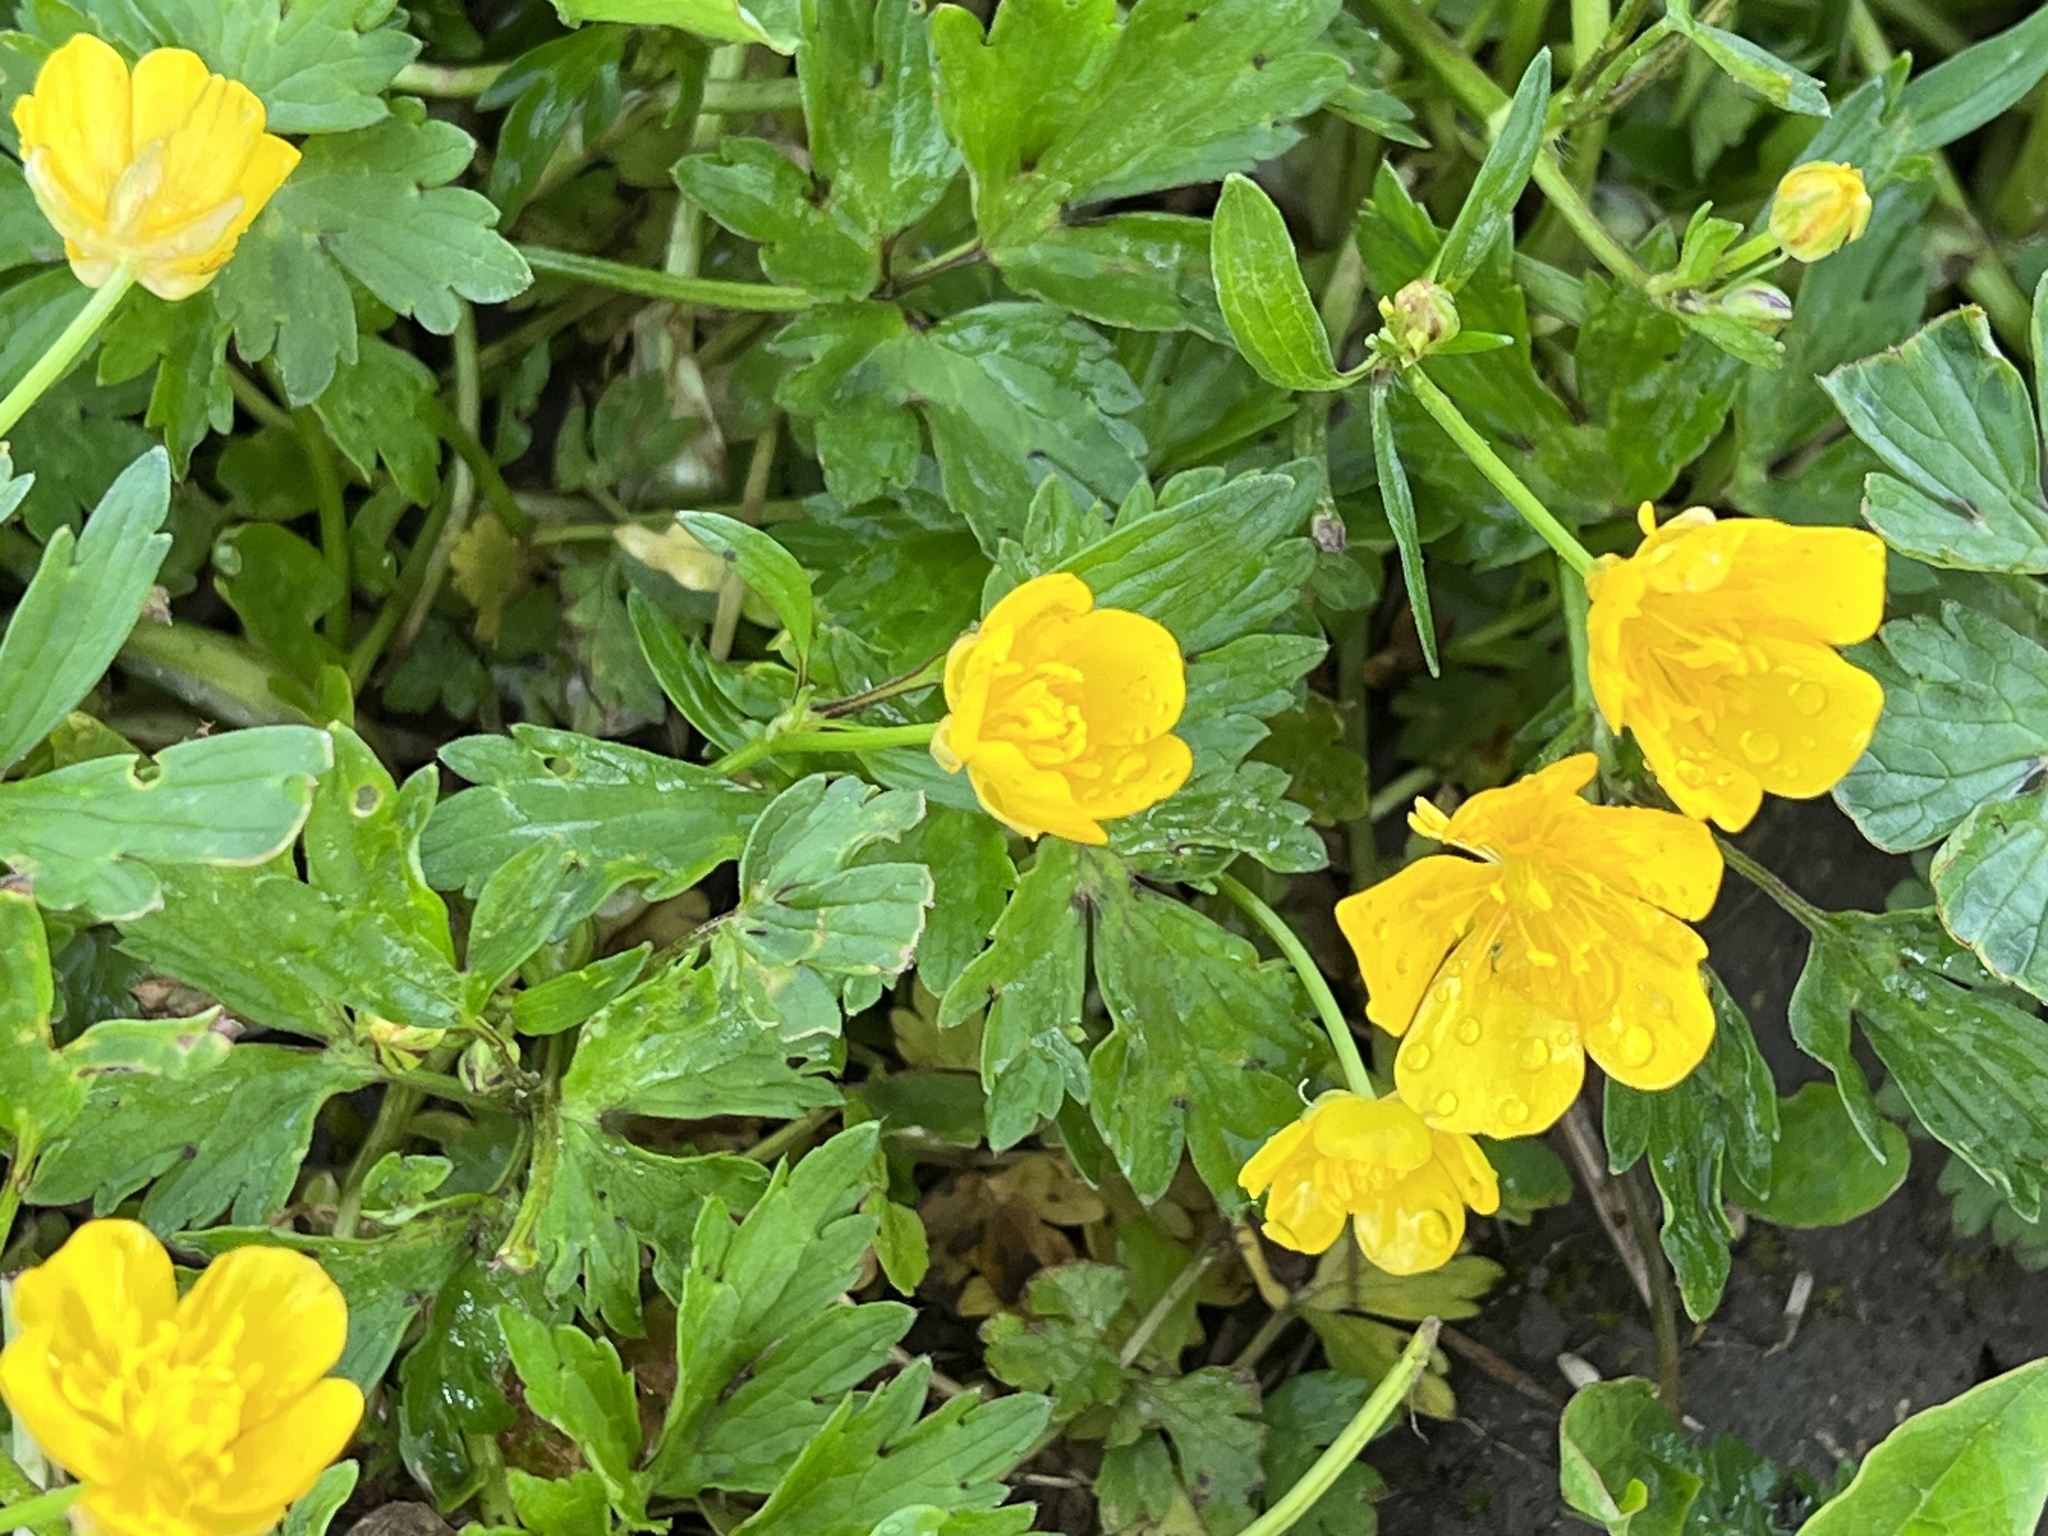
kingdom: Plantae
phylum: Tracheophyta
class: Magnoliopsida
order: Ranunculales
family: Ranunculaceae
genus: Ranunculus
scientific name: Ranunculus repens
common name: Creeping buttercup
